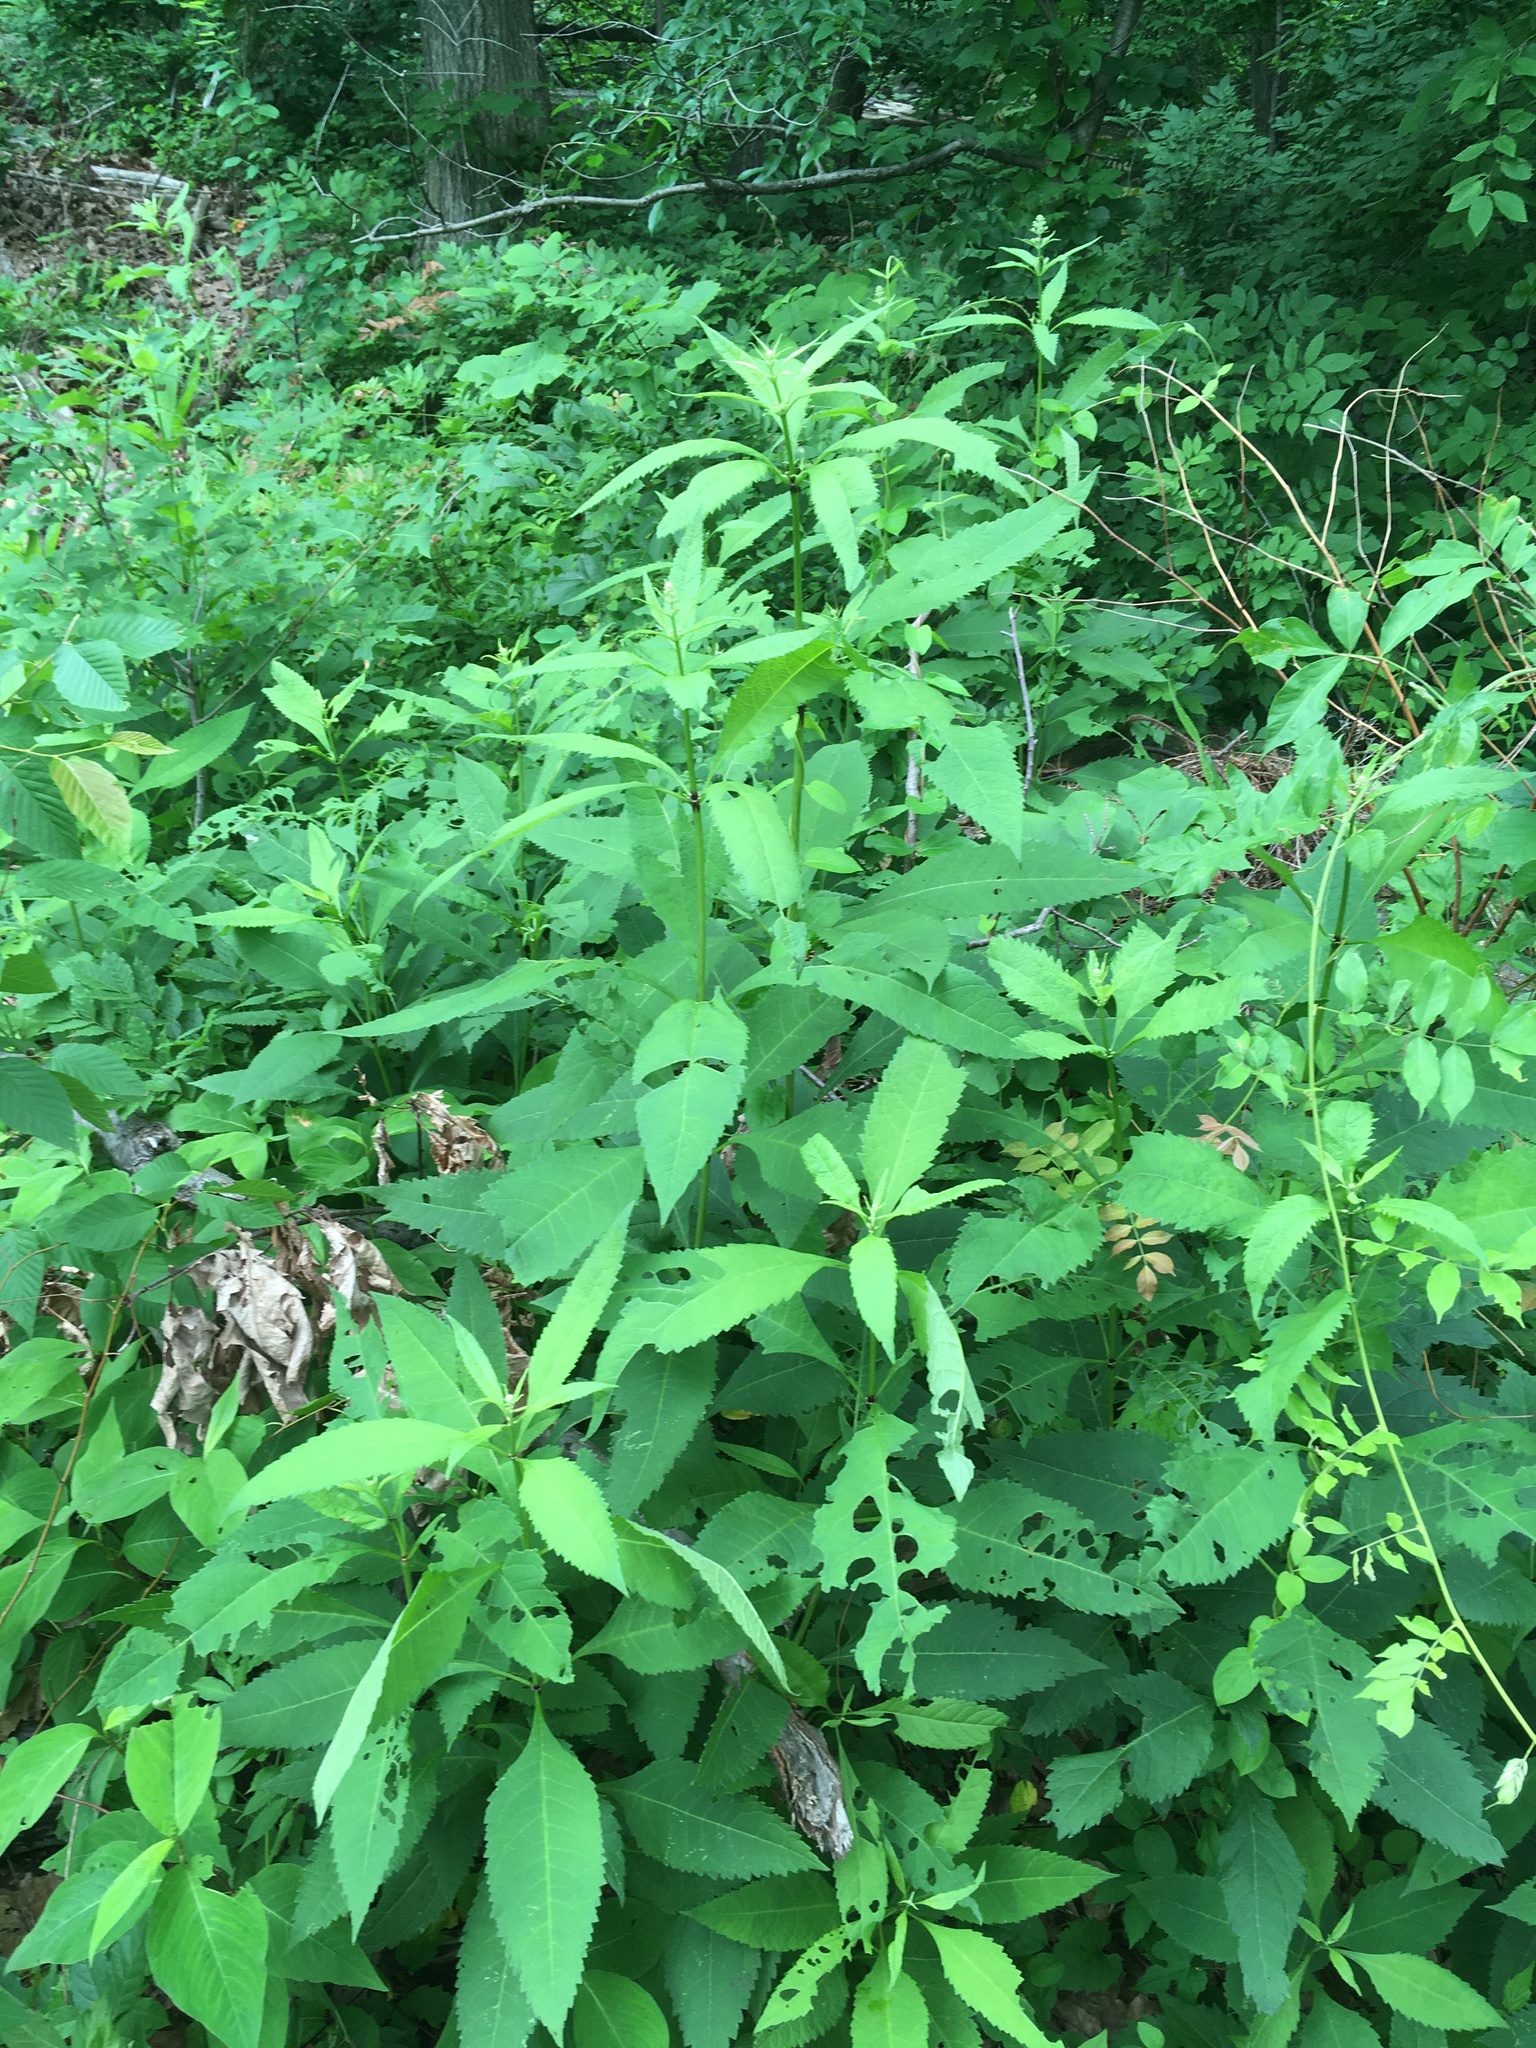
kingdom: Plantae
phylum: Tracheophyta
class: Magnoliopsida
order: Asterales
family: Asteraceae
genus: Eutrochium
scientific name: Eutrochium purpureum
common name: Gravelroot
